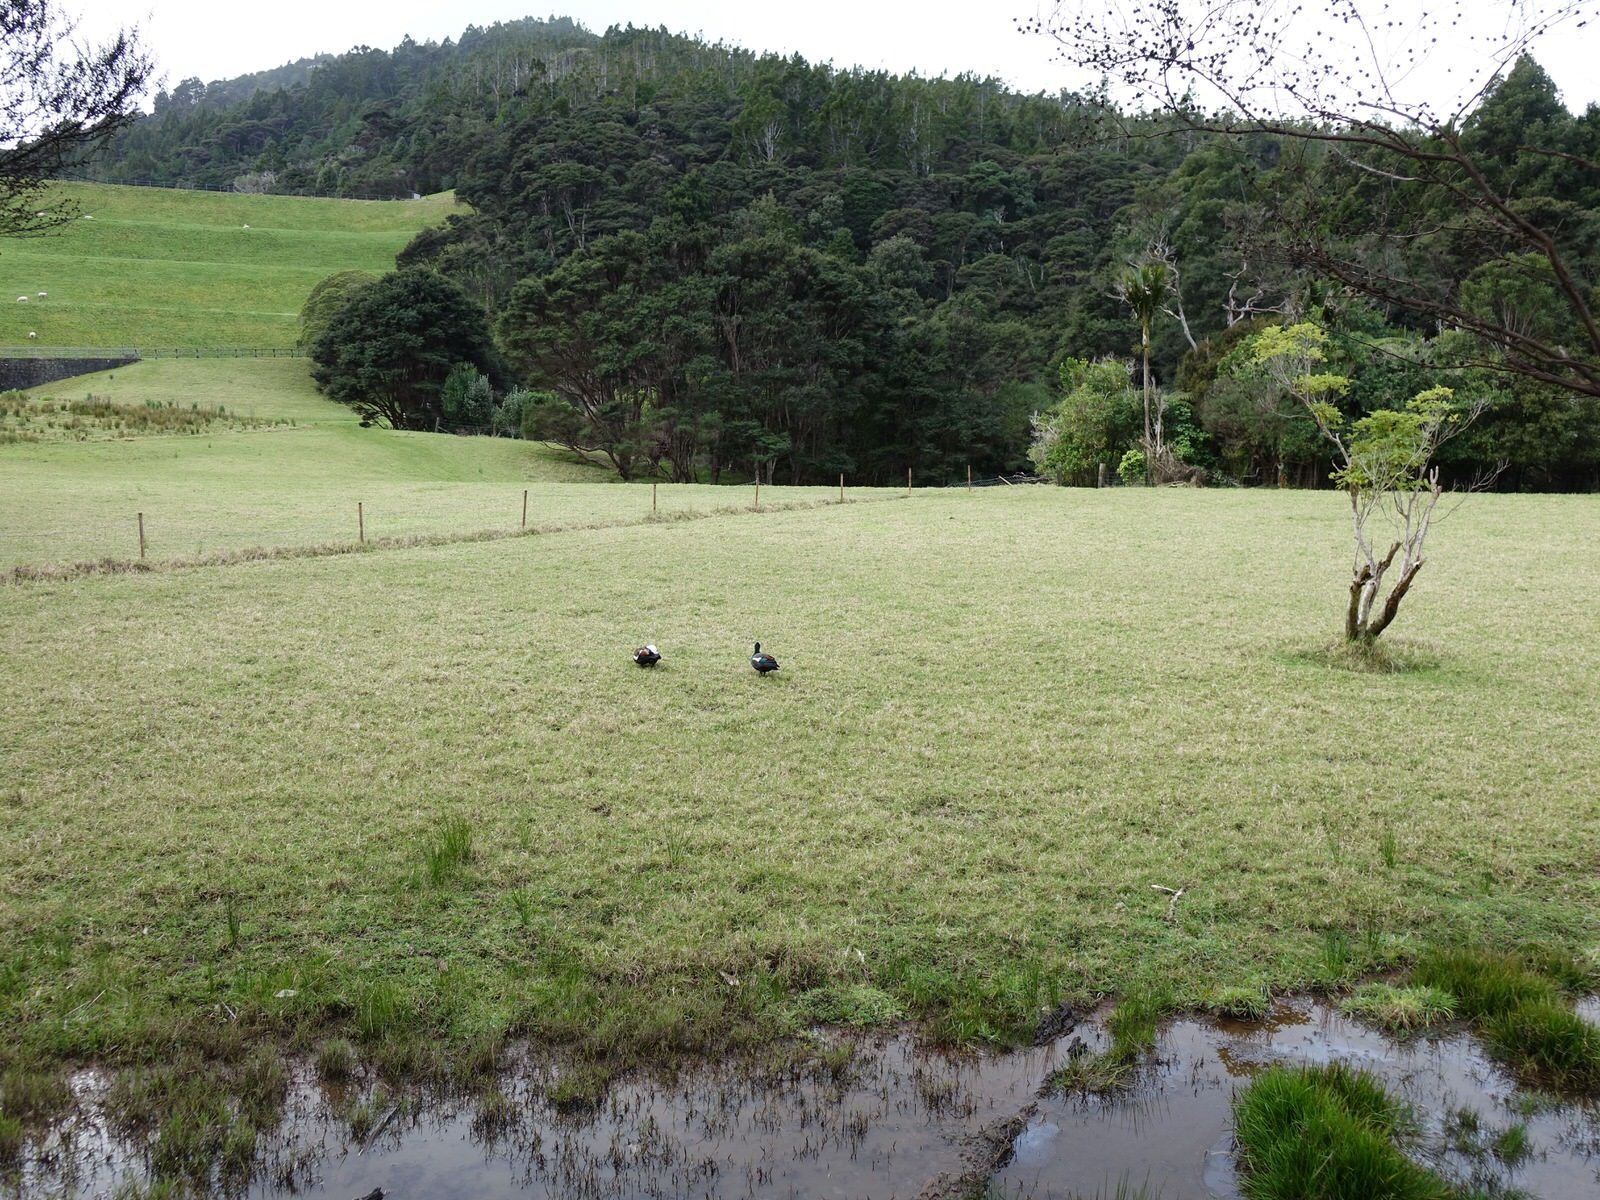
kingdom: Animalia
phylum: Chordata
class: Aves
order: Anseriformes
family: Anatidae
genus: Tadorna
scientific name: Tadorna variegata
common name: Paradise shelduck
